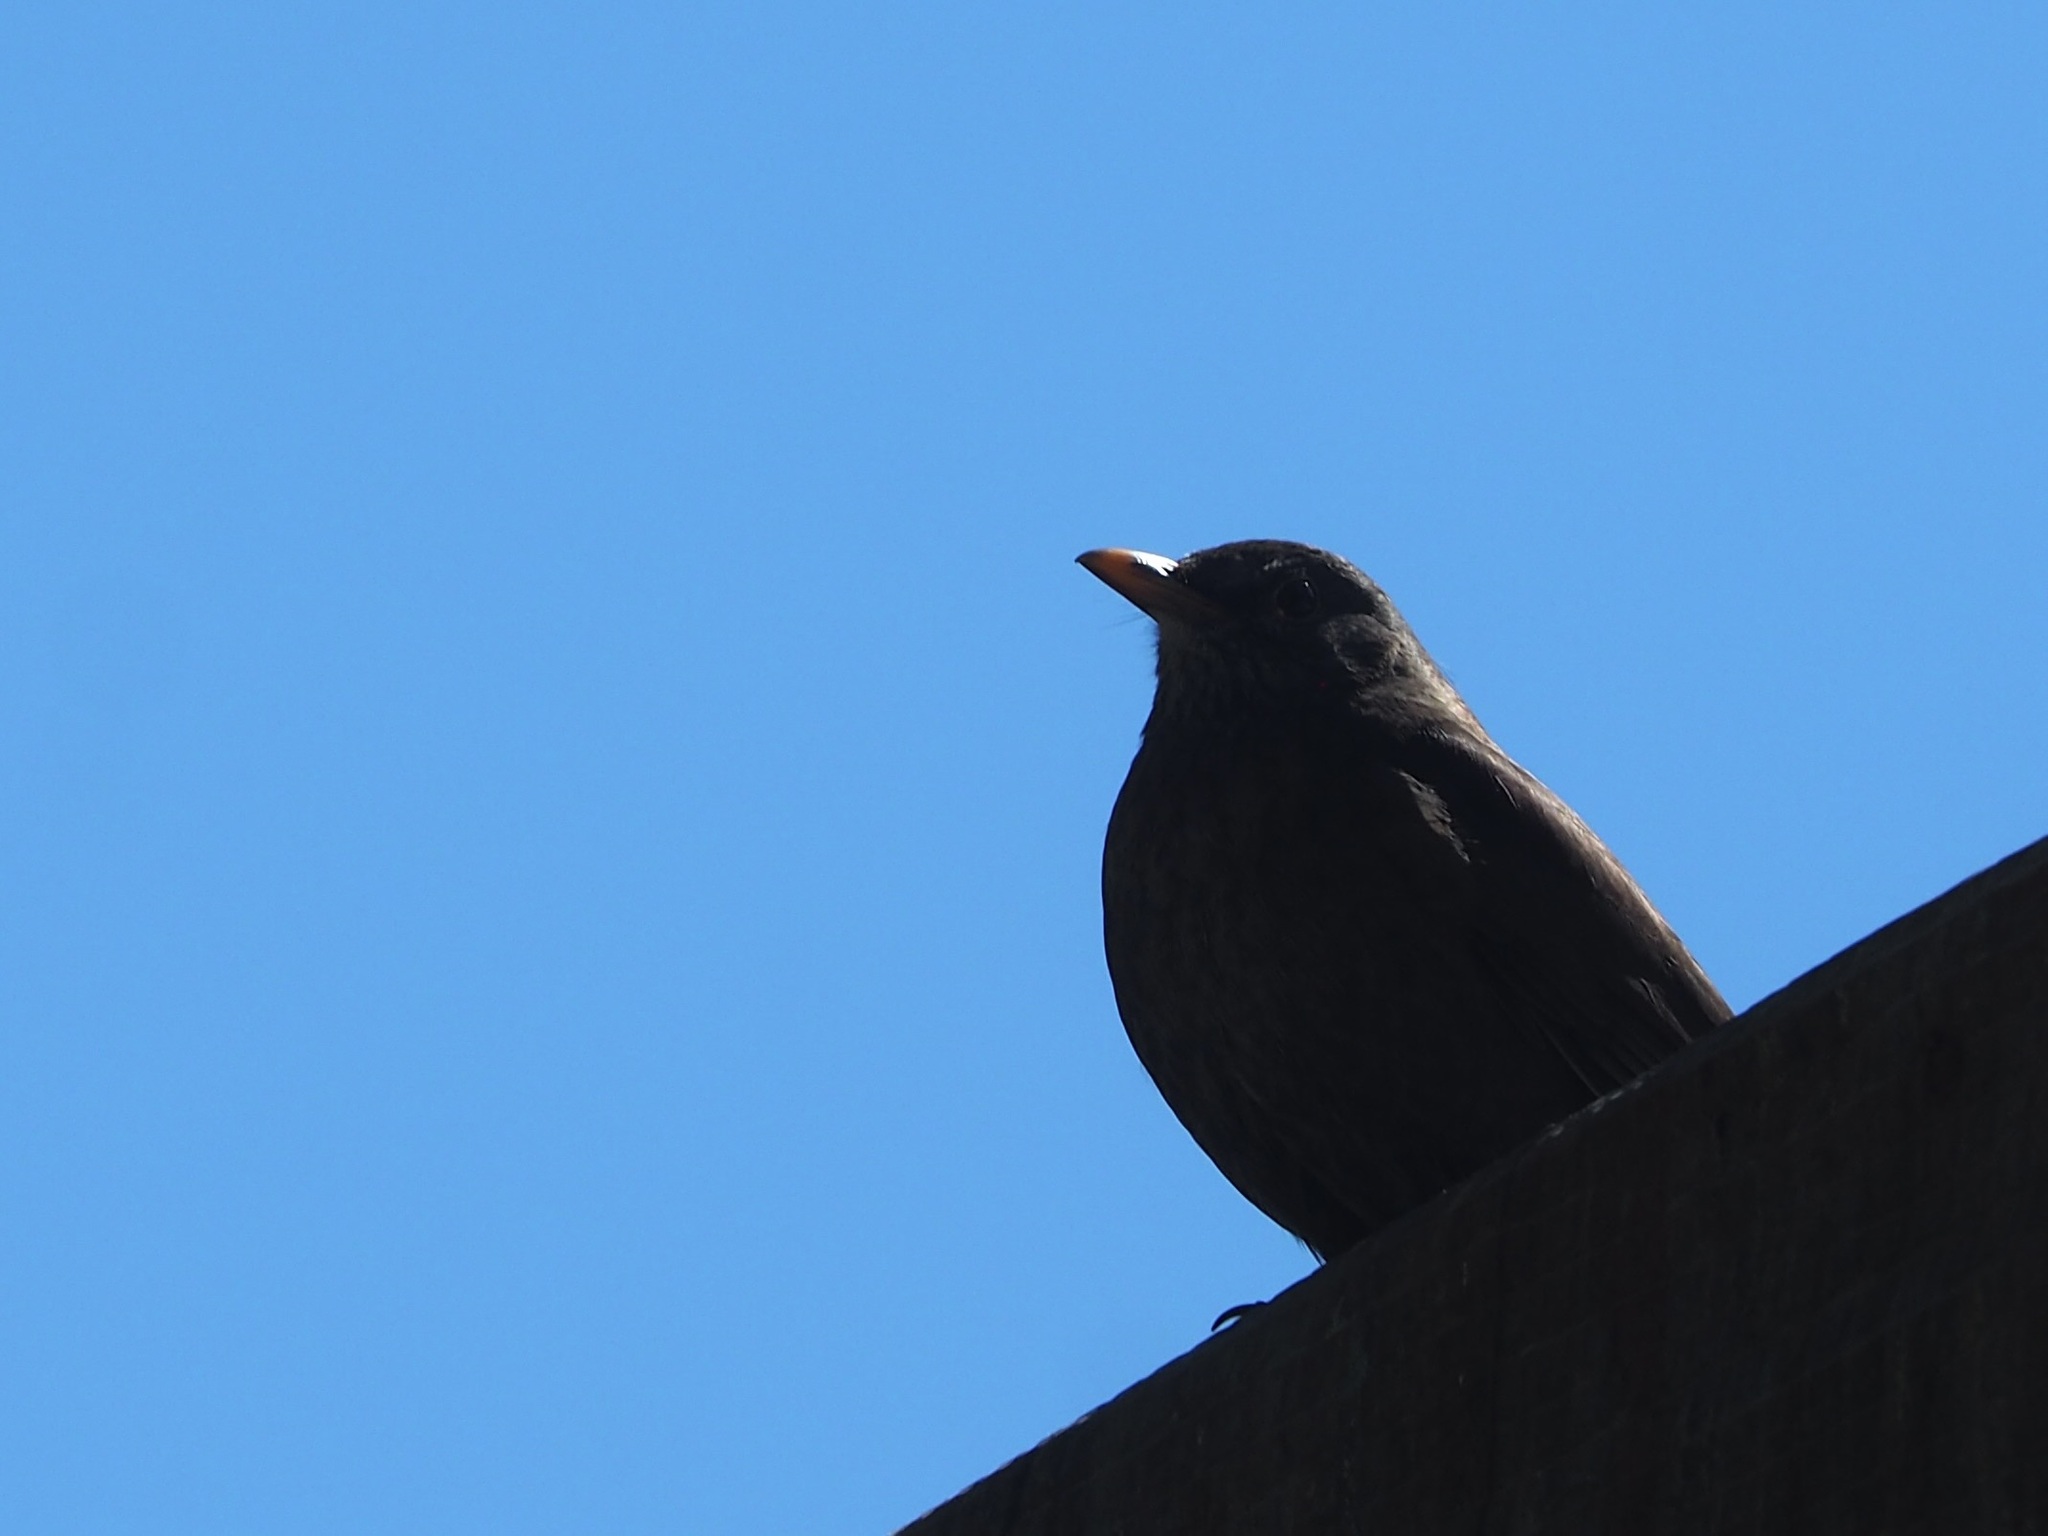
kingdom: Animalia
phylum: Chordata
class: Aves
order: Passeriformes
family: Turdidae
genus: Turdus
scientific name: Turdus merula
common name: Common blackbird
